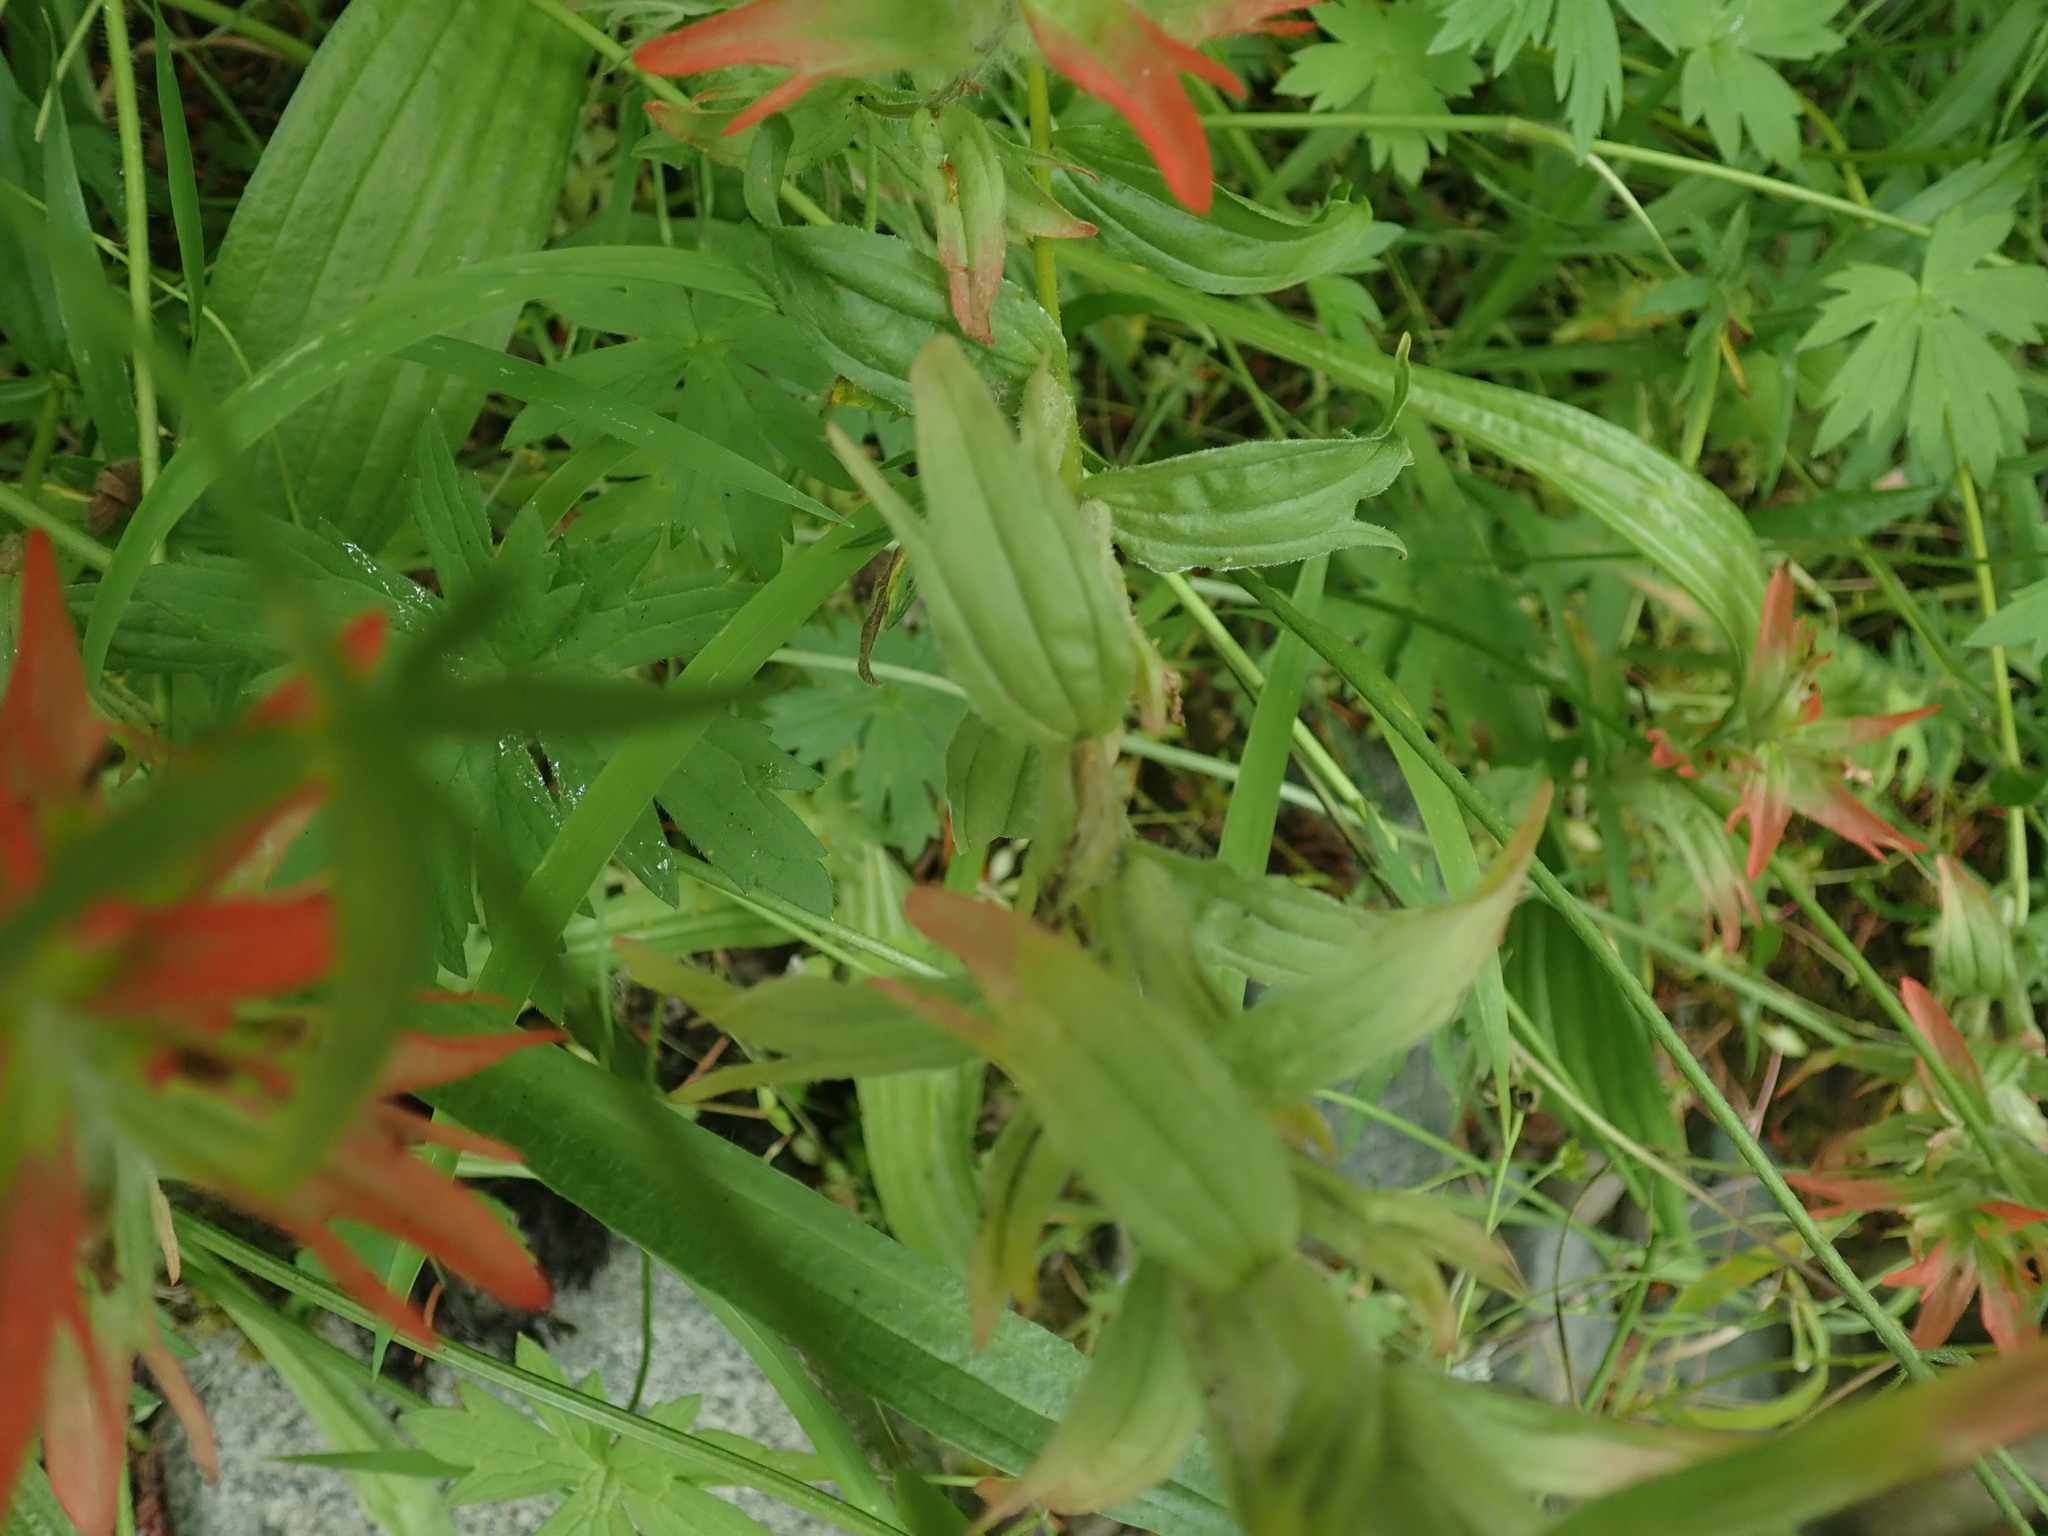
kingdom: Plantae
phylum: Tracheophyta
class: Magnoliopsida
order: Lamiales
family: Orobanchaceae
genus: Castilleja
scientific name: Castilleja hispida
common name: Bristly paintbrush
